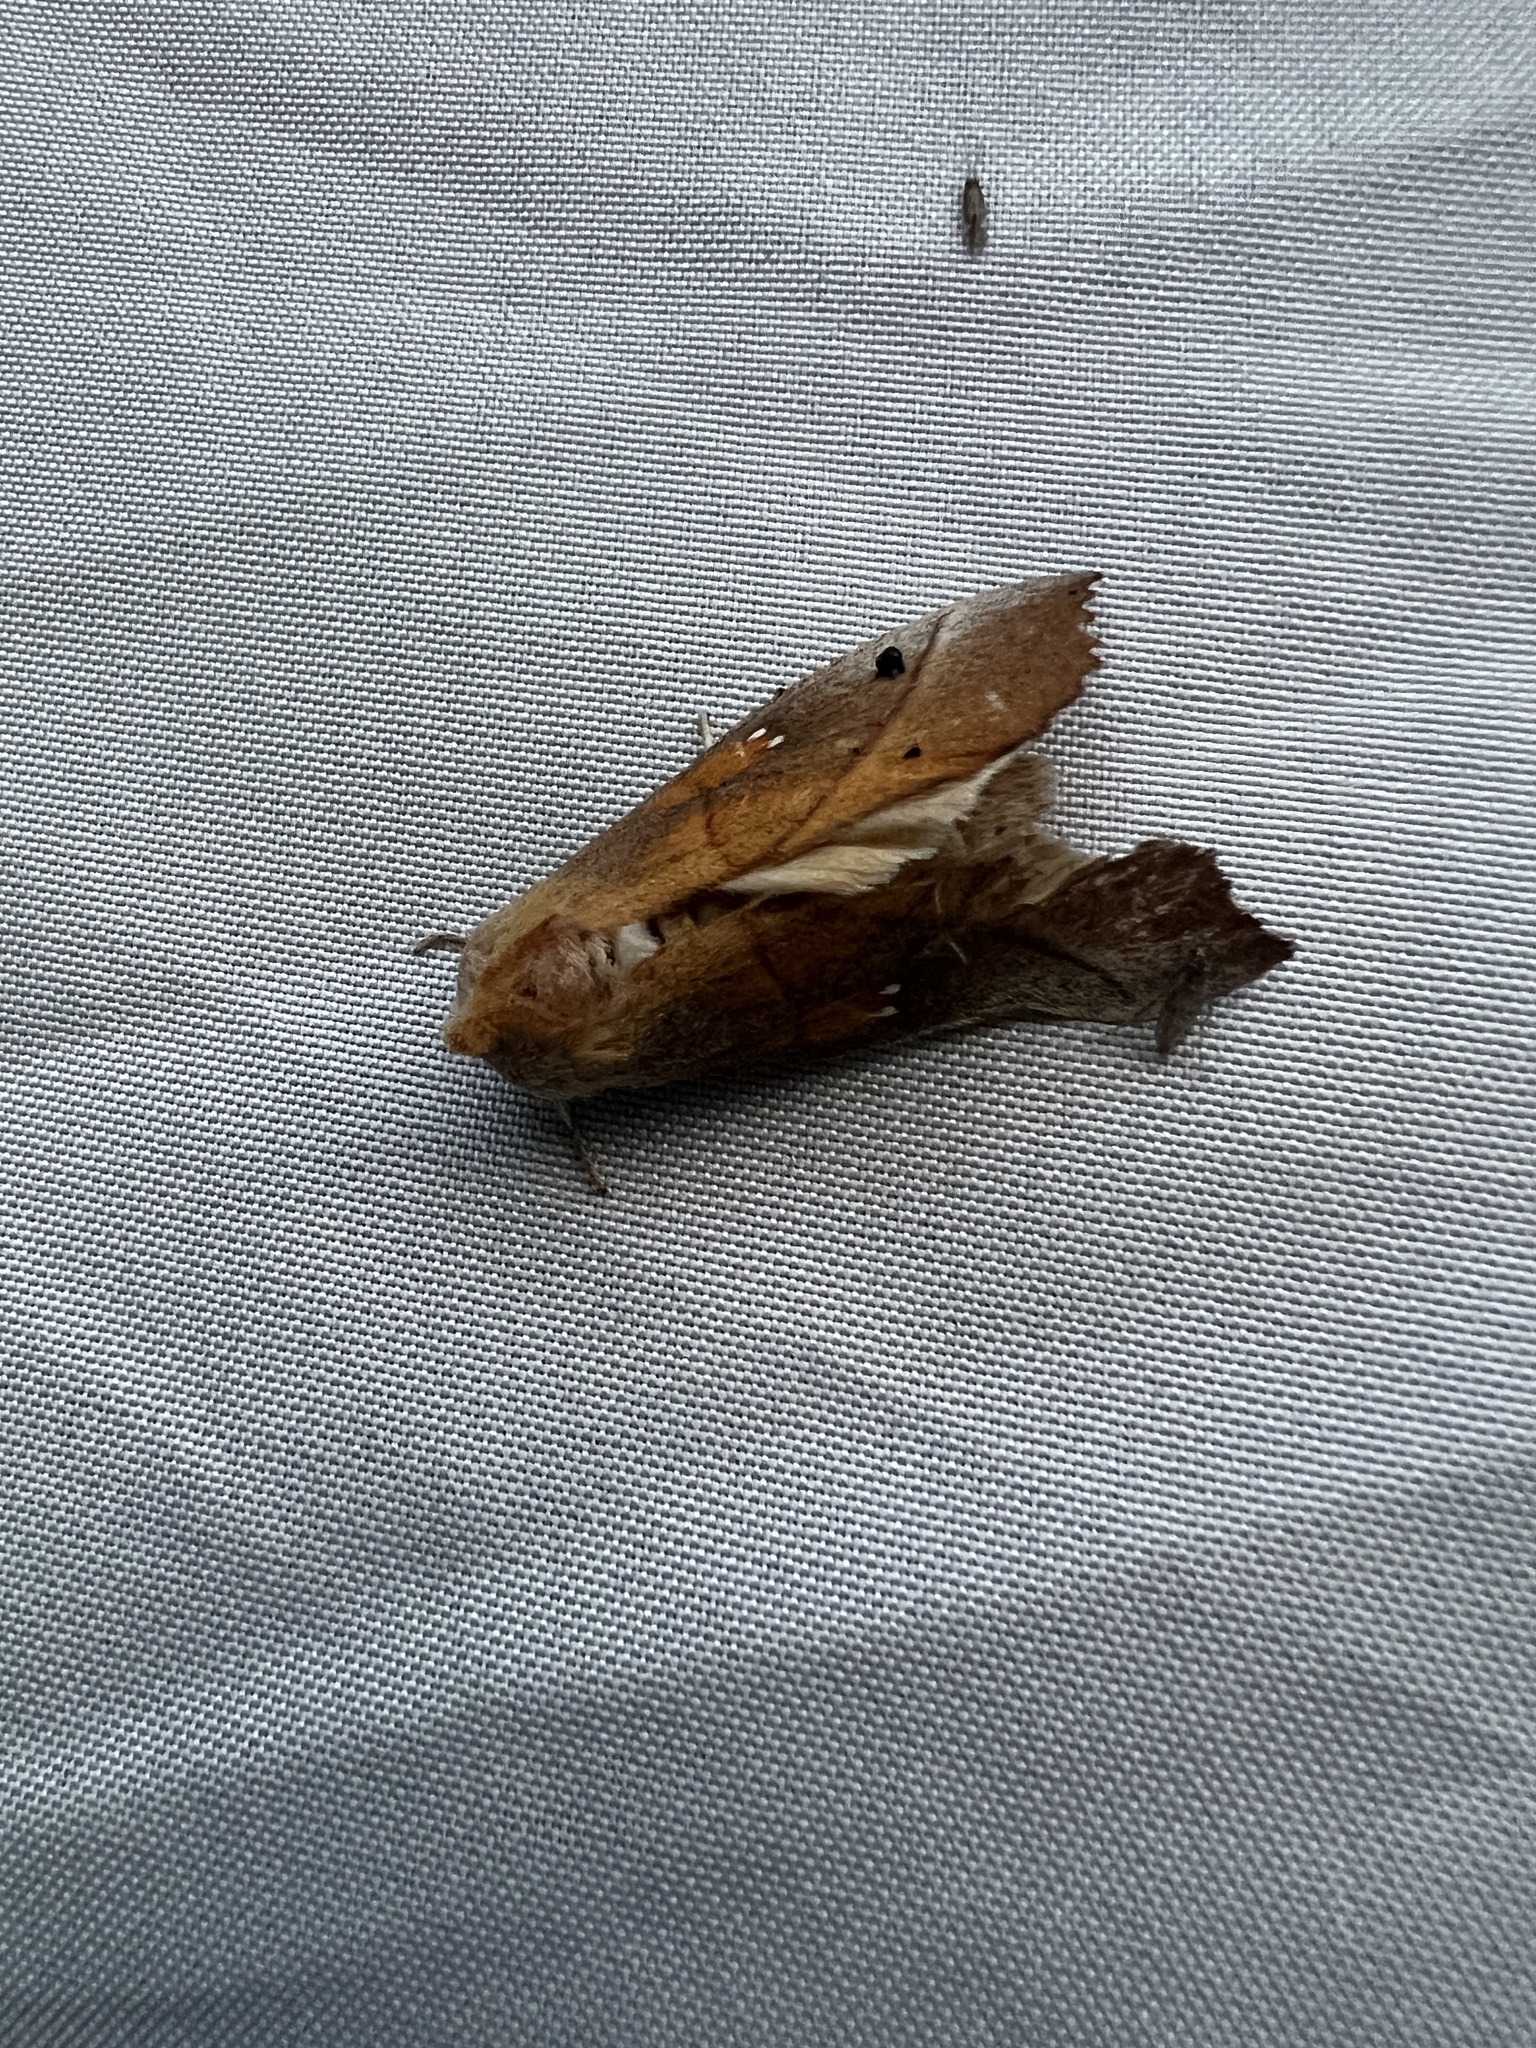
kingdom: Animalia
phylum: Arthropoda
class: Insecta
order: Lepidoptera
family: Notodontidae
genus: Nadata
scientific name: Nadata gibbosa
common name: White-dotted prominent
